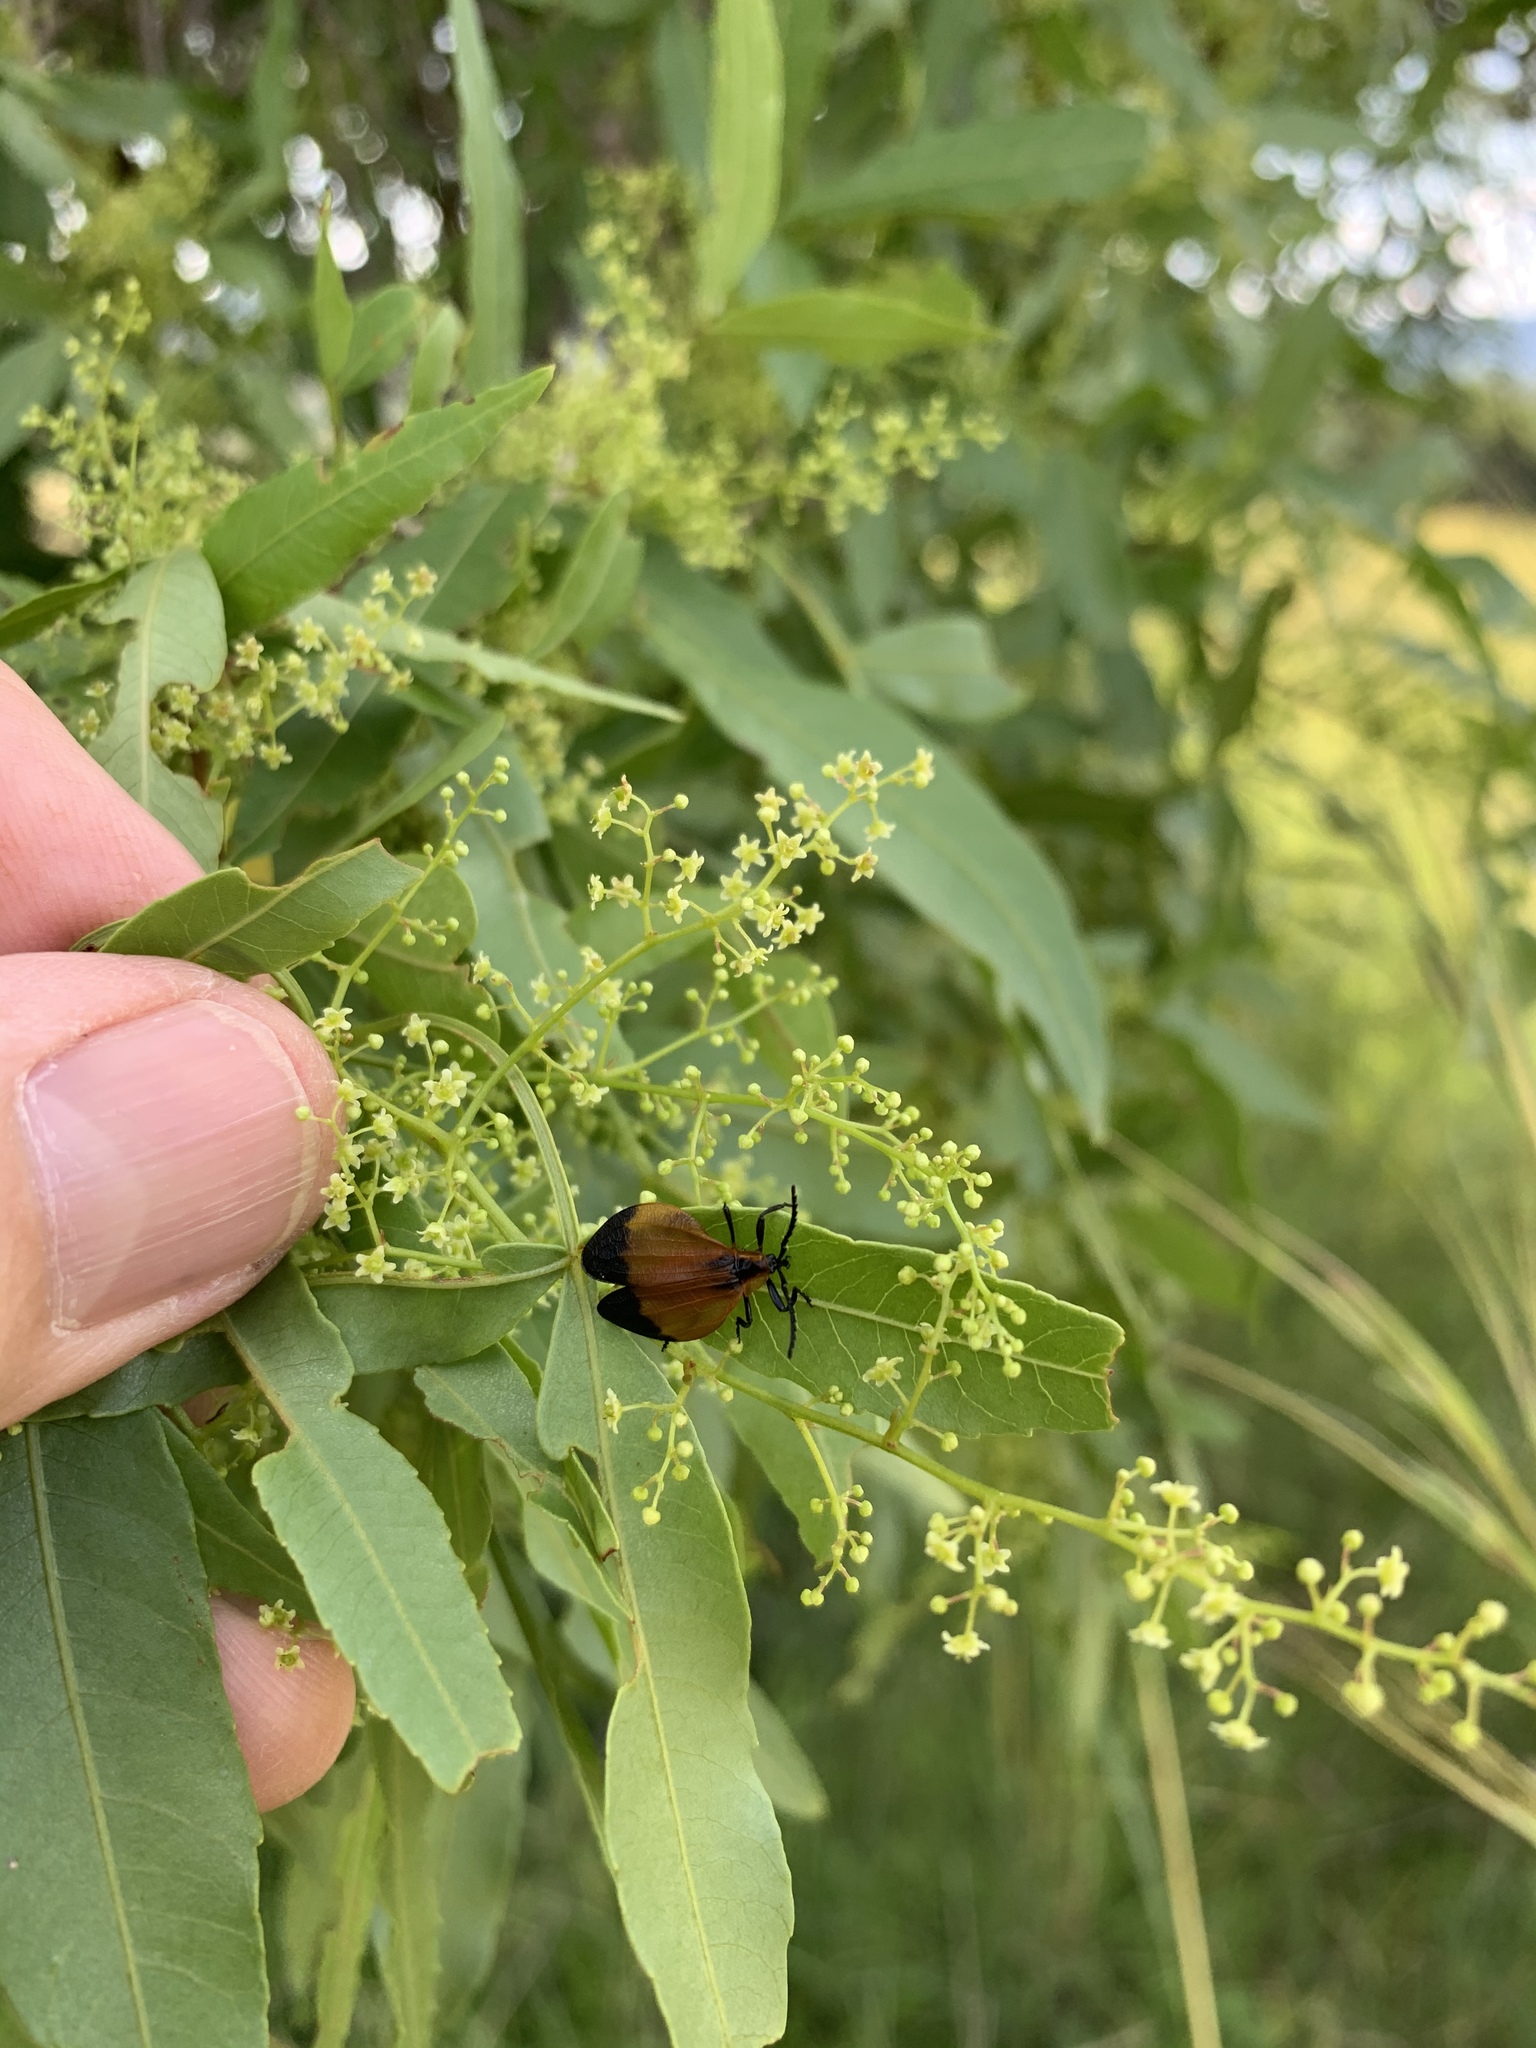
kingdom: Plantae
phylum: Tracheophyta
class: Magnoliopsida
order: Sapindales
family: Anacardiaceae
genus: Searsia
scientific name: Searsia leptodictya
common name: Mountain karee
